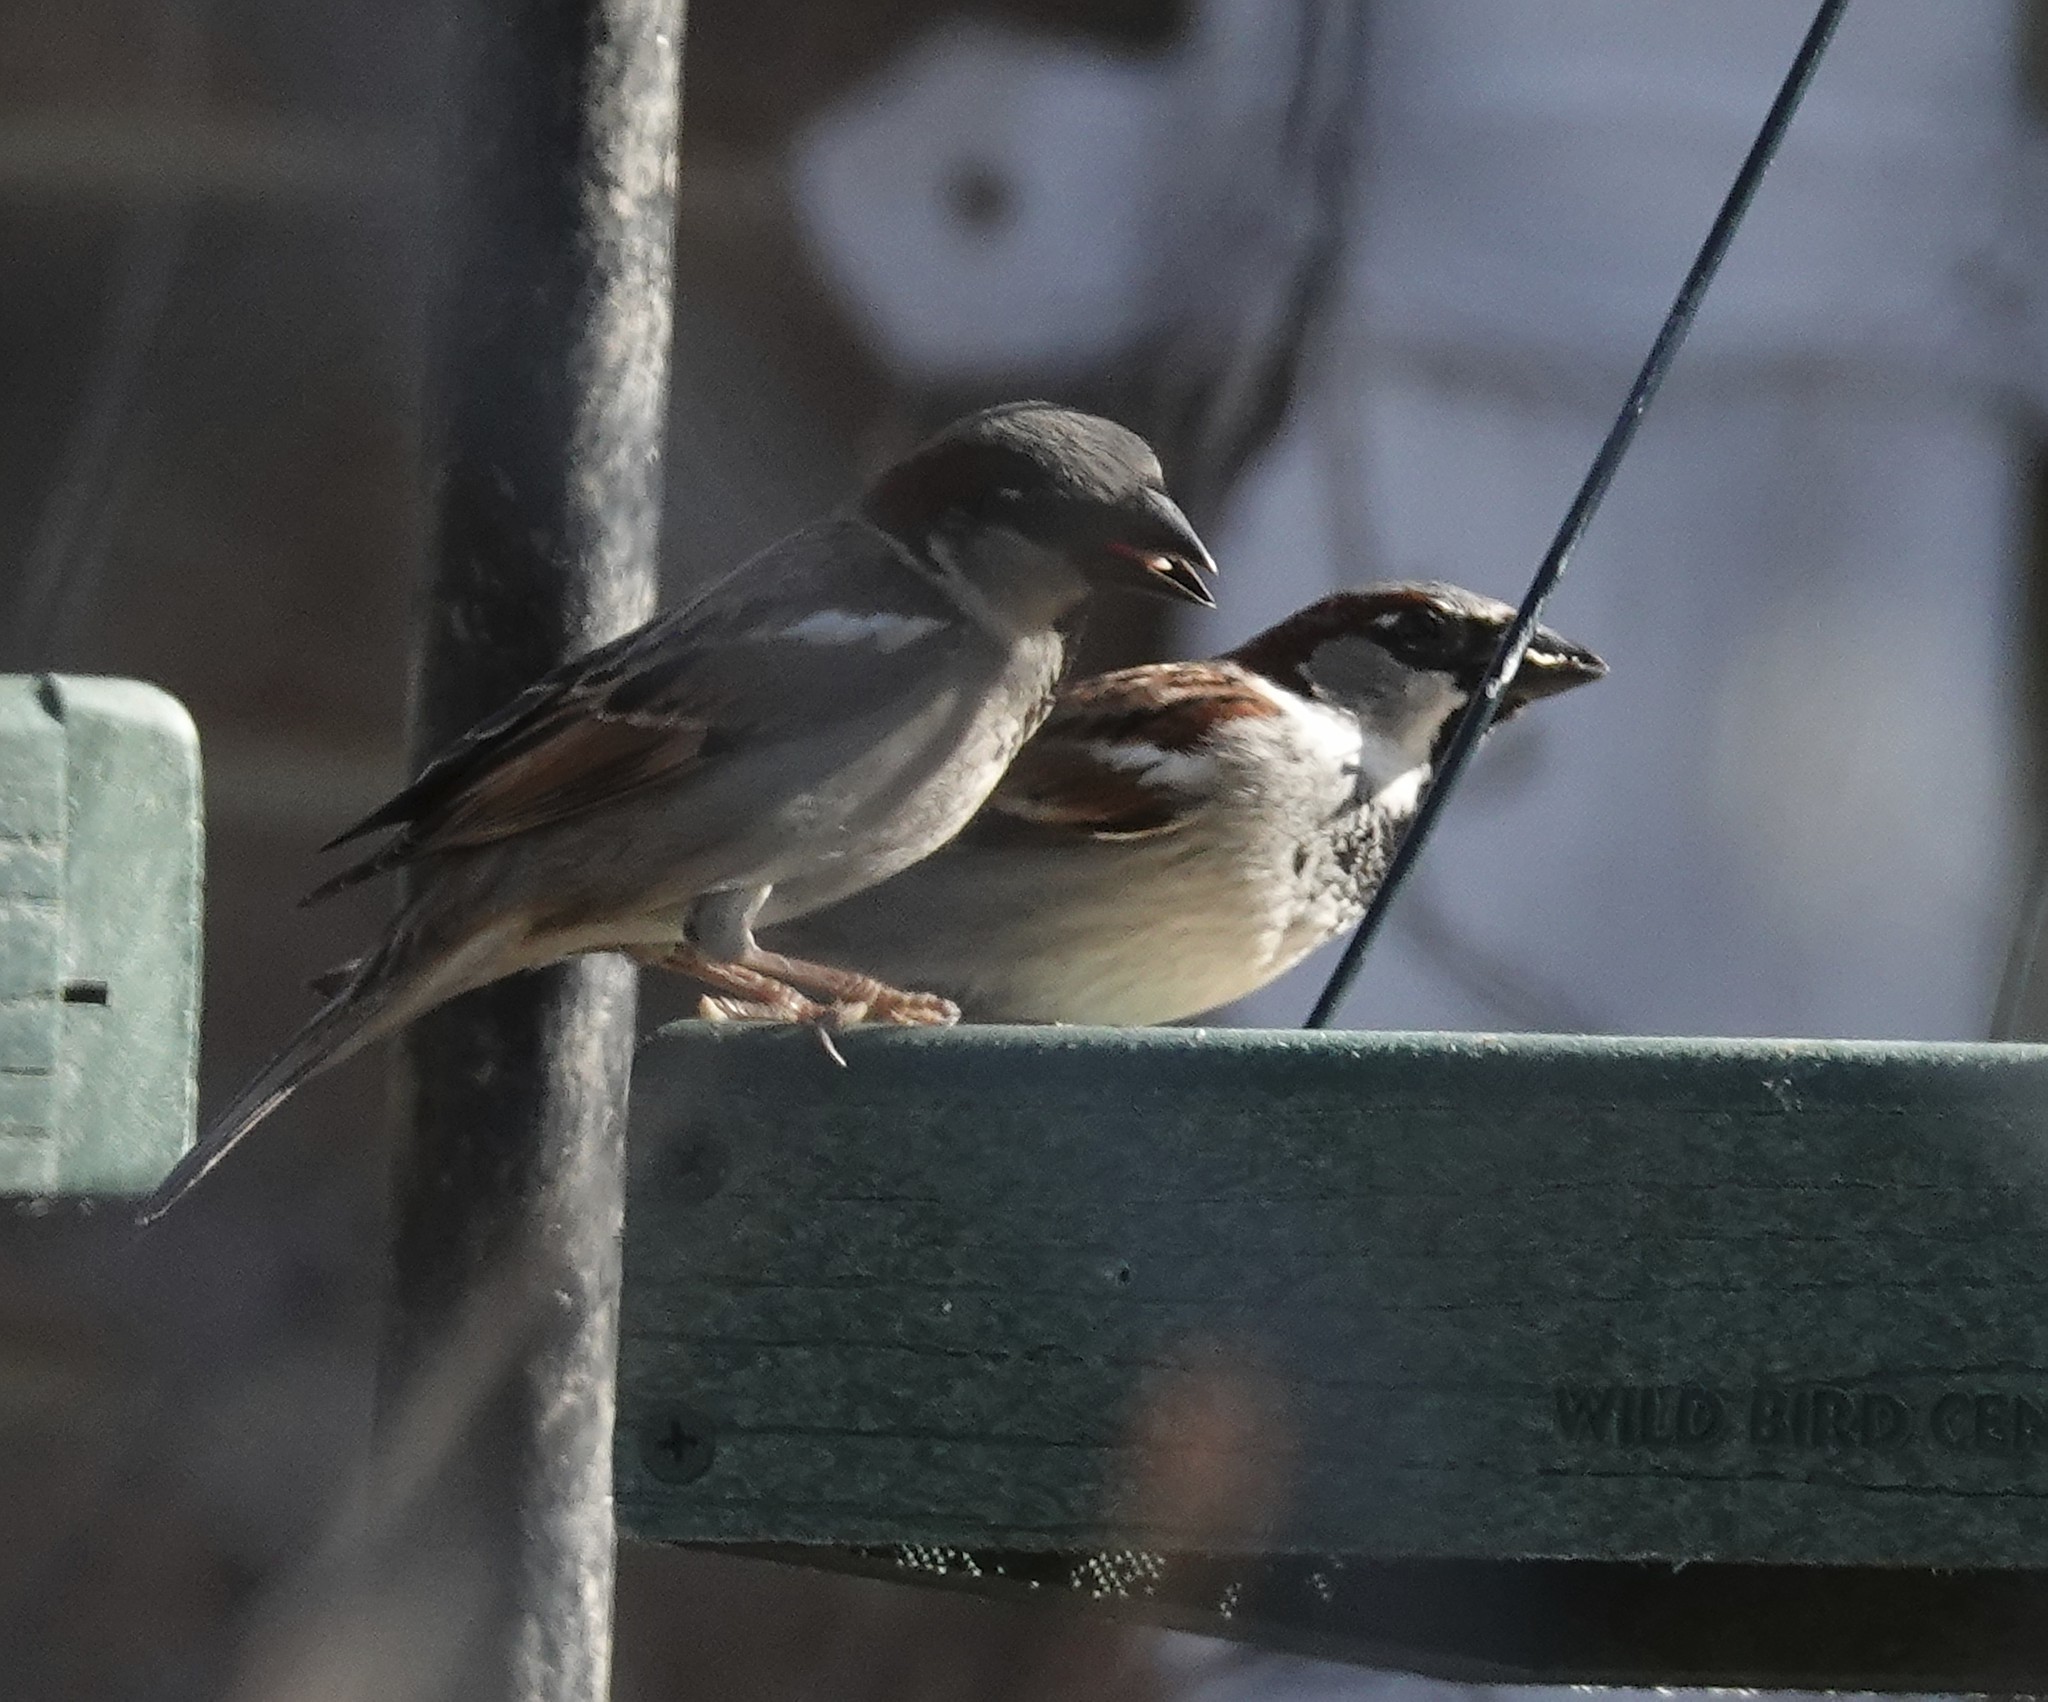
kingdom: Animalia
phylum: Chordata
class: Aves
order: Passeriformes
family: Passeridae
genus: Passer
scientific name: Passer domesticus
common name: House sparrow
